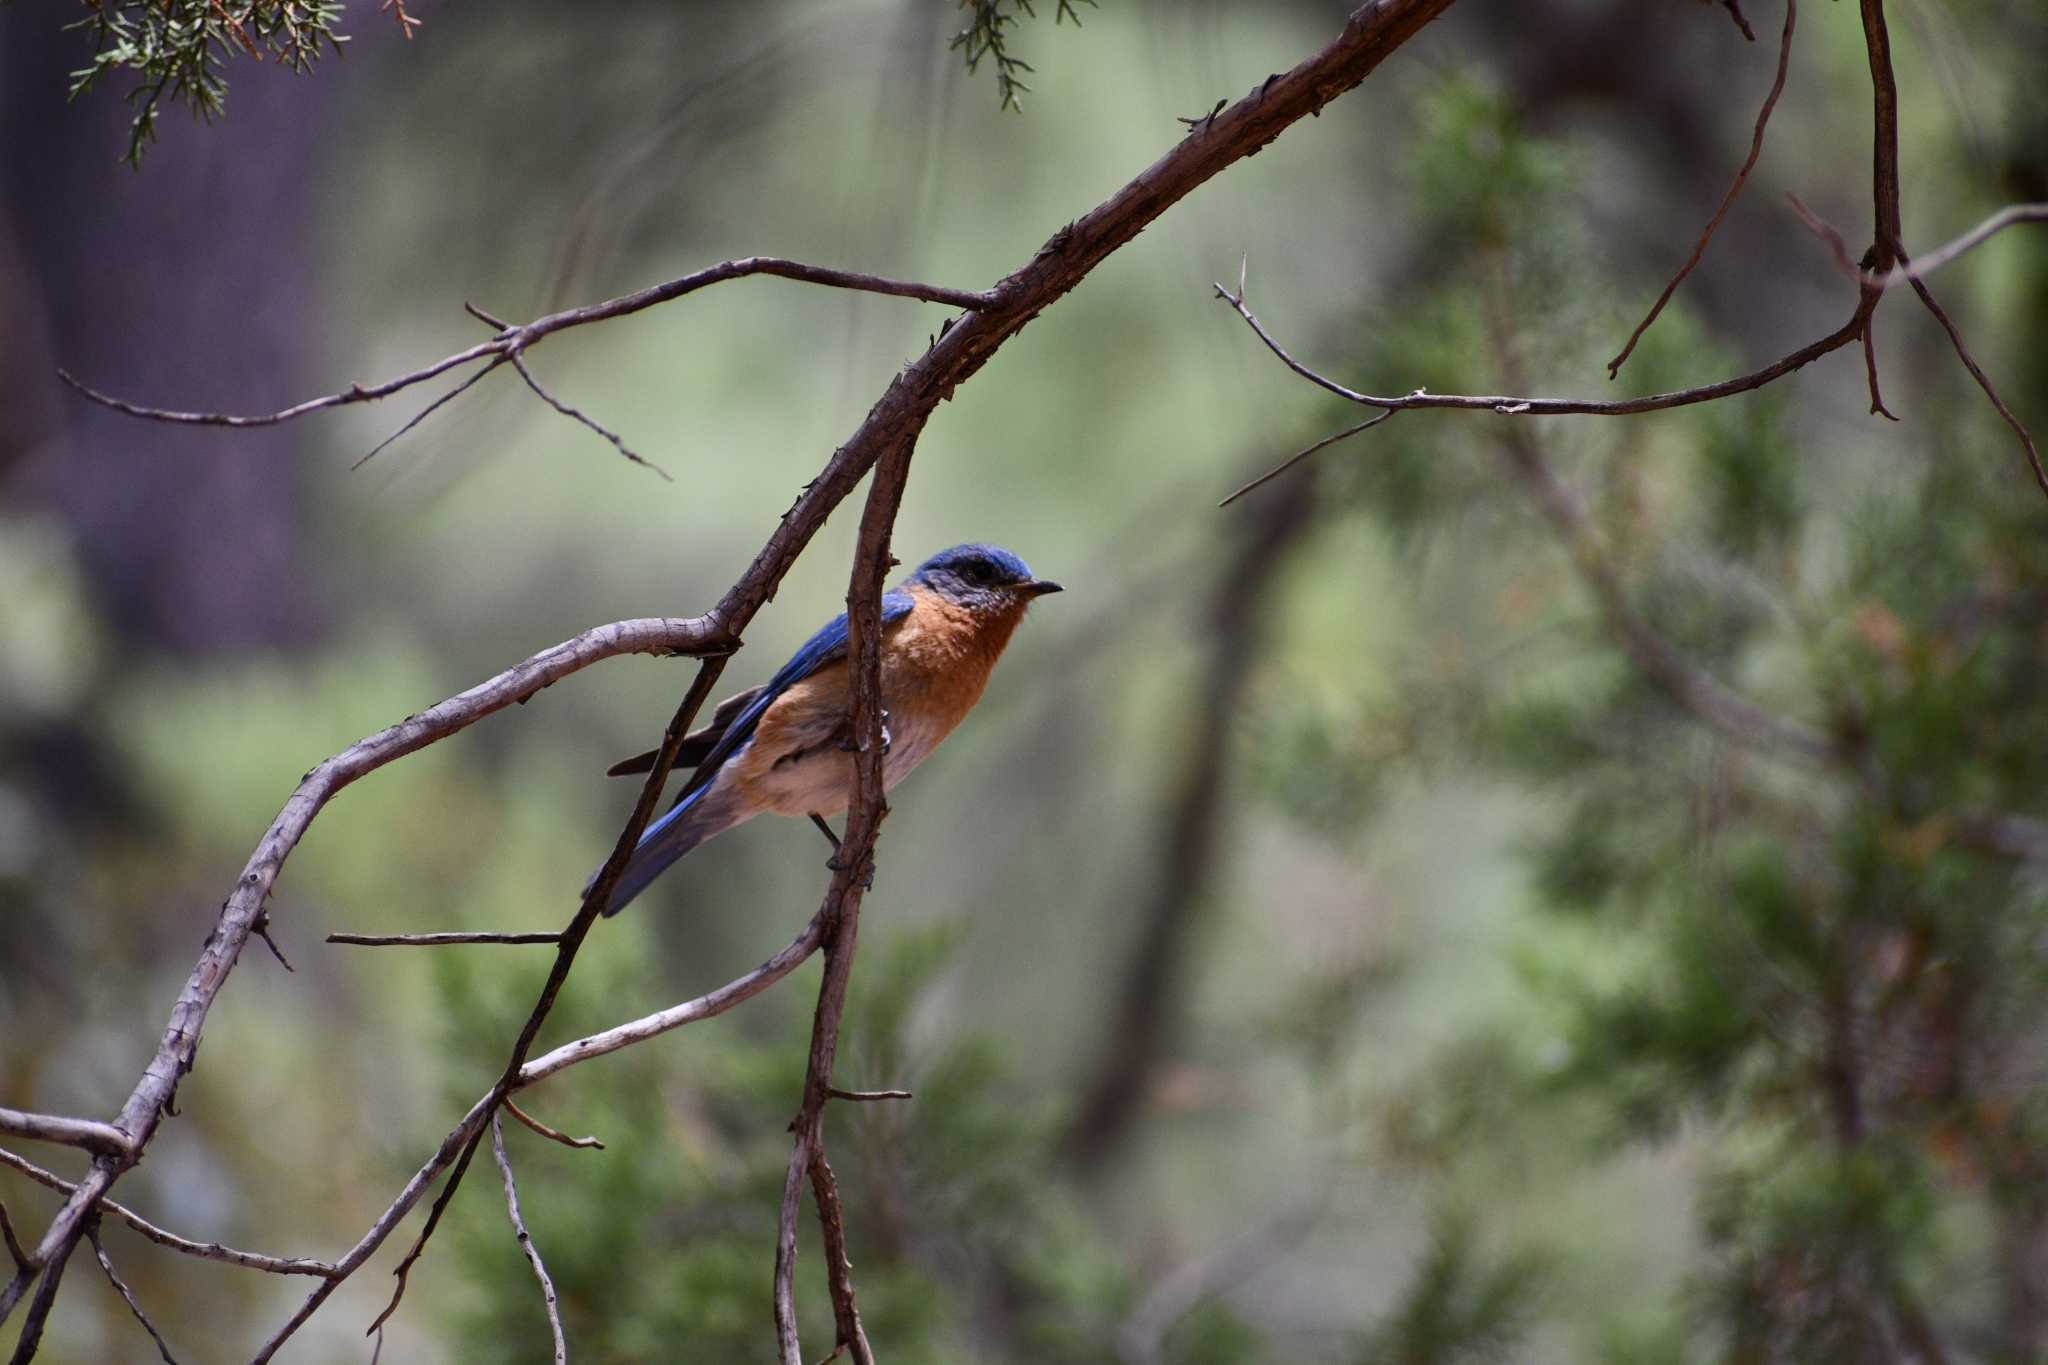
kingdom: Animalia
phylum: Chordata
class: Aves
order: Passeriformes
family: Turdidae
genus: Sialia
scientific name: Sialia sialis
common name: Eastern bluebird
